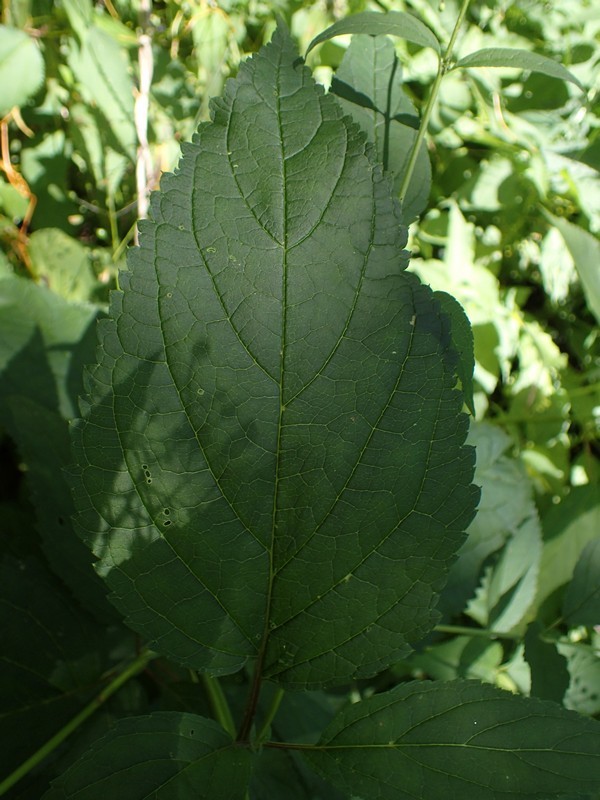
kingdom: Plantae
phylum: Tracheophyta
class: Magnoliopsida
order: Lamiales
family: Scrophulariaceae
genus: Scrophularia
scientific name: Scrophularia marilandica
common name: Eastern figwort
